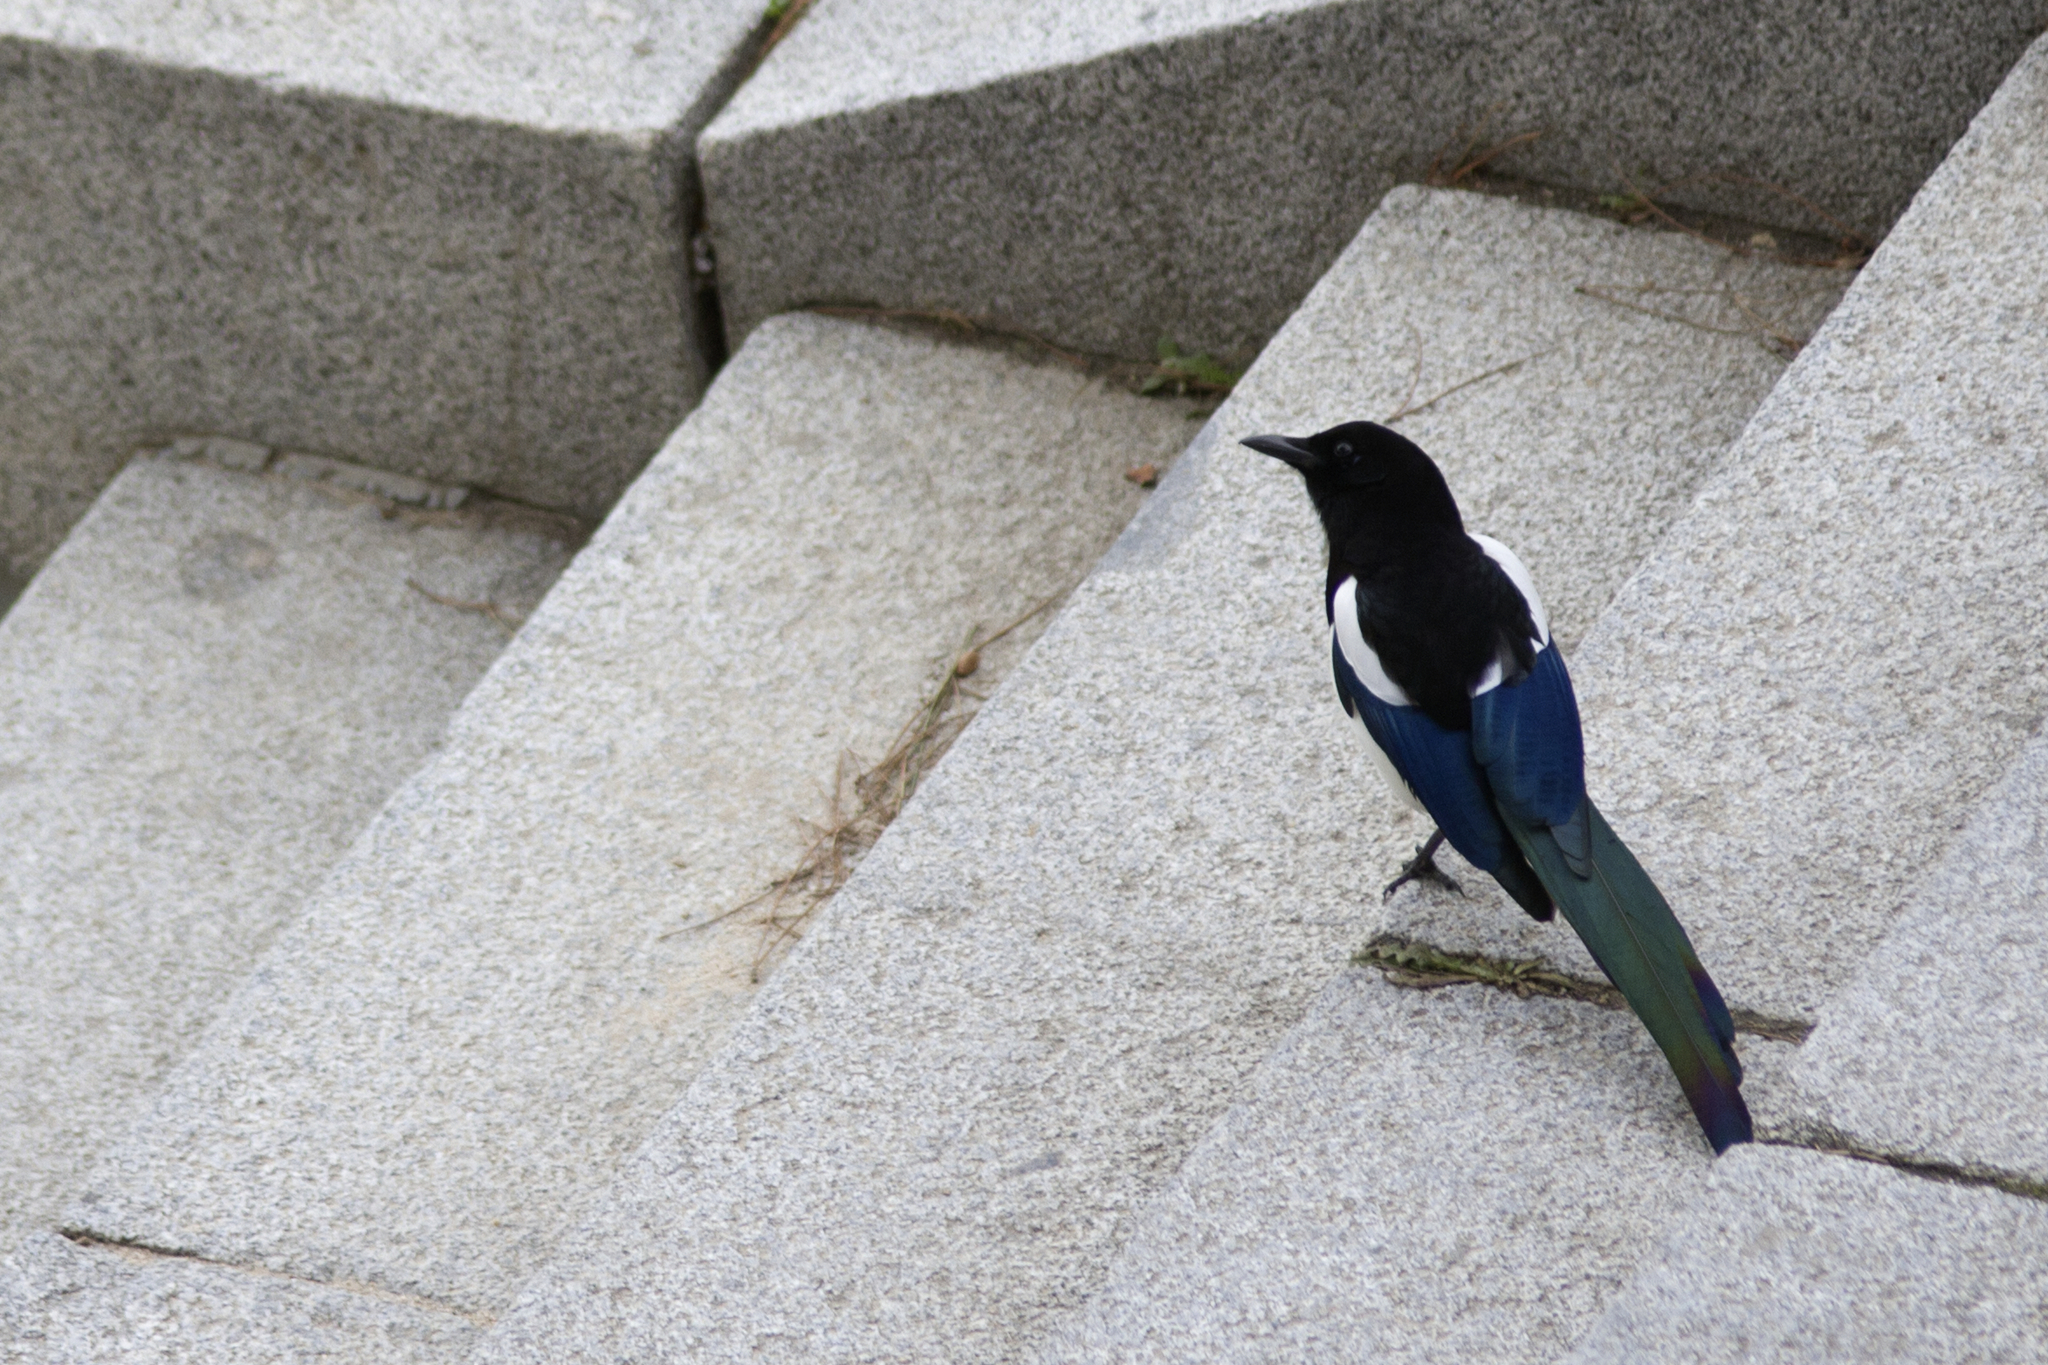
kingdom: Animalia
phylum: Chordata
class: Aves
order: Passeriformes
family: Corvidae
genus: Pica
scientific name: Pica pica
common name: Eurasian magpie
